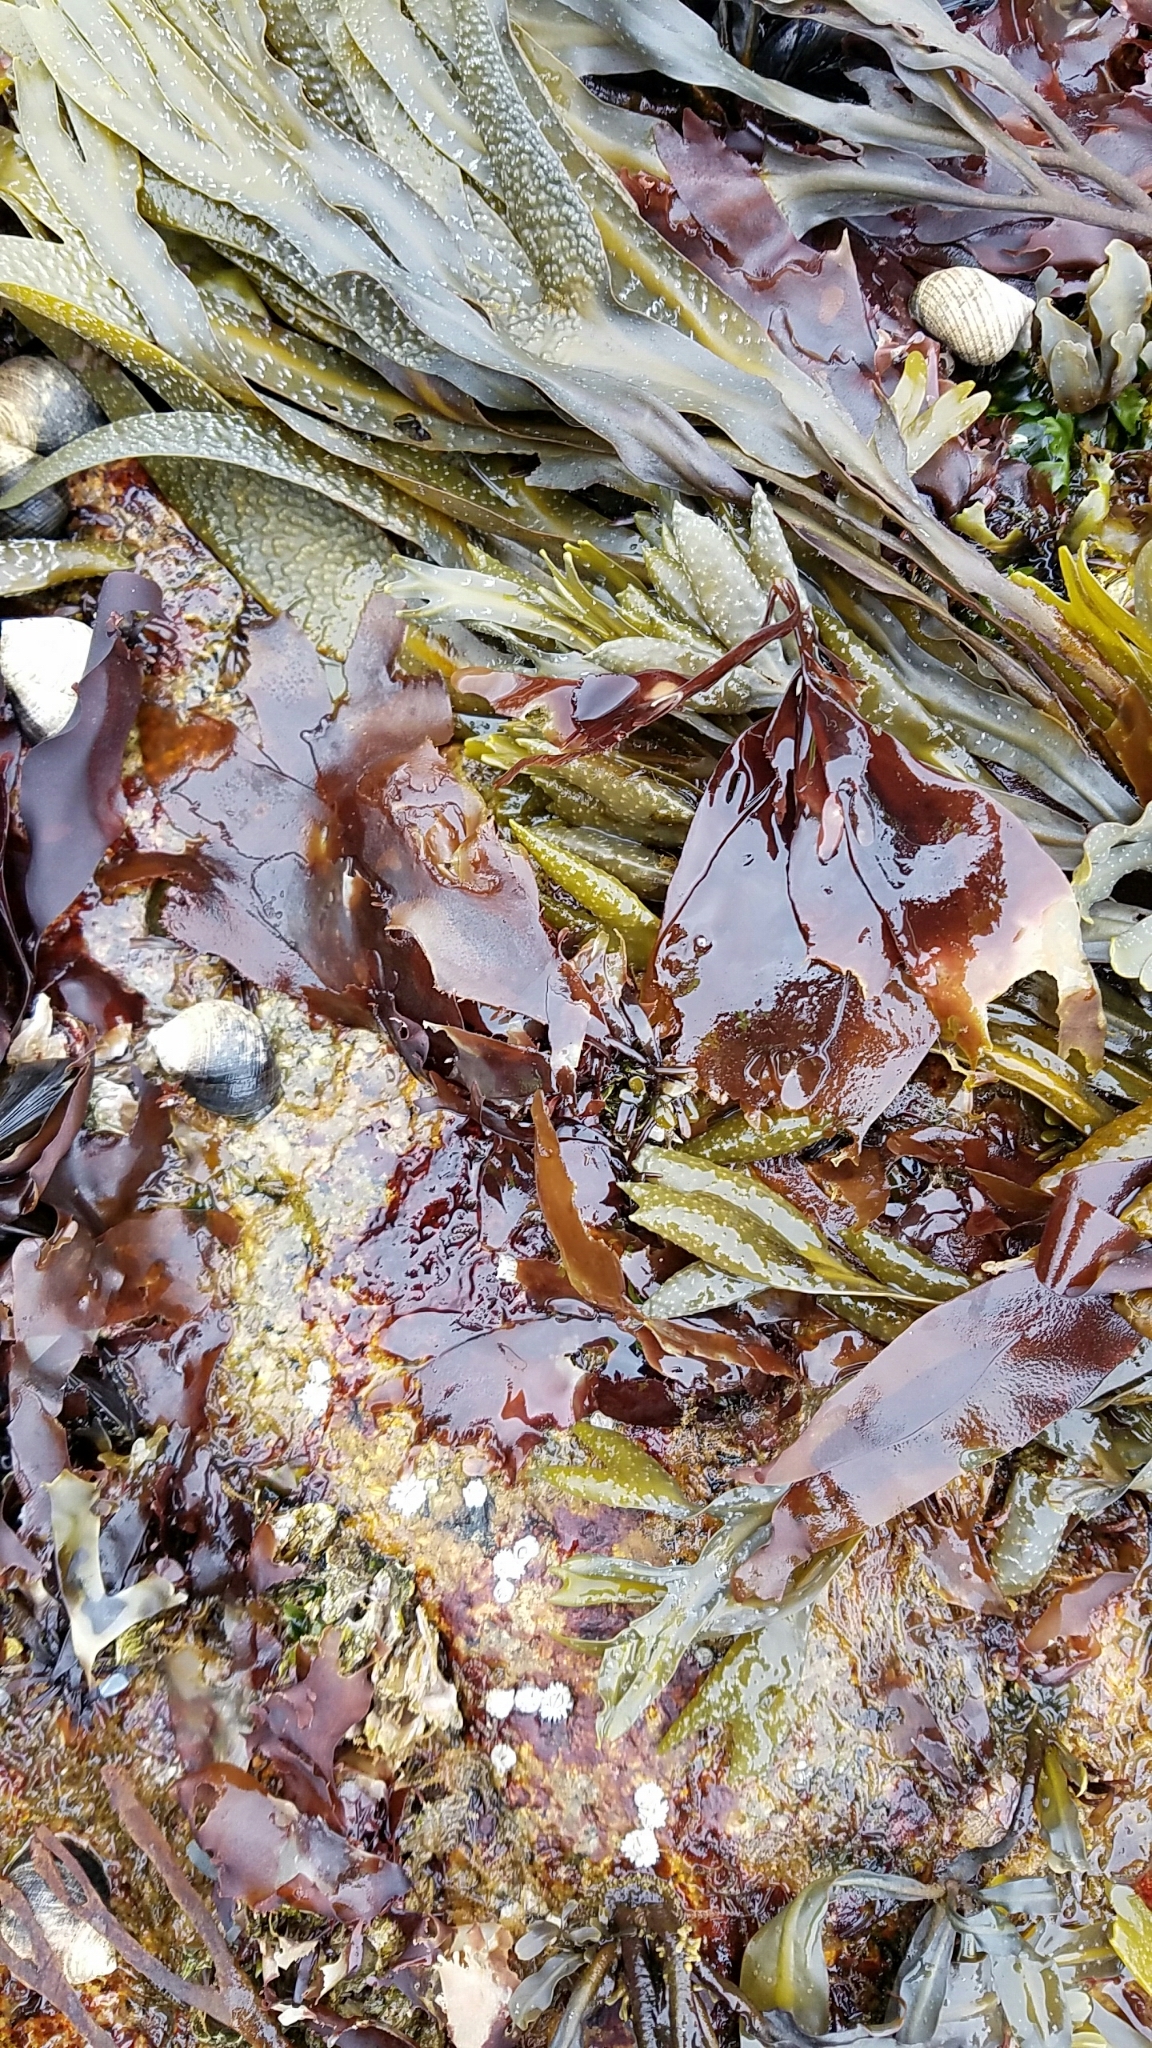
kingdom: Plantae
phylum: Rhodophyta
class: Florideophyceae
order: Palmariales
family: Palmariaceae
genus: Palmaria
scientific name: Palmaria palmata
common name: Dulse
